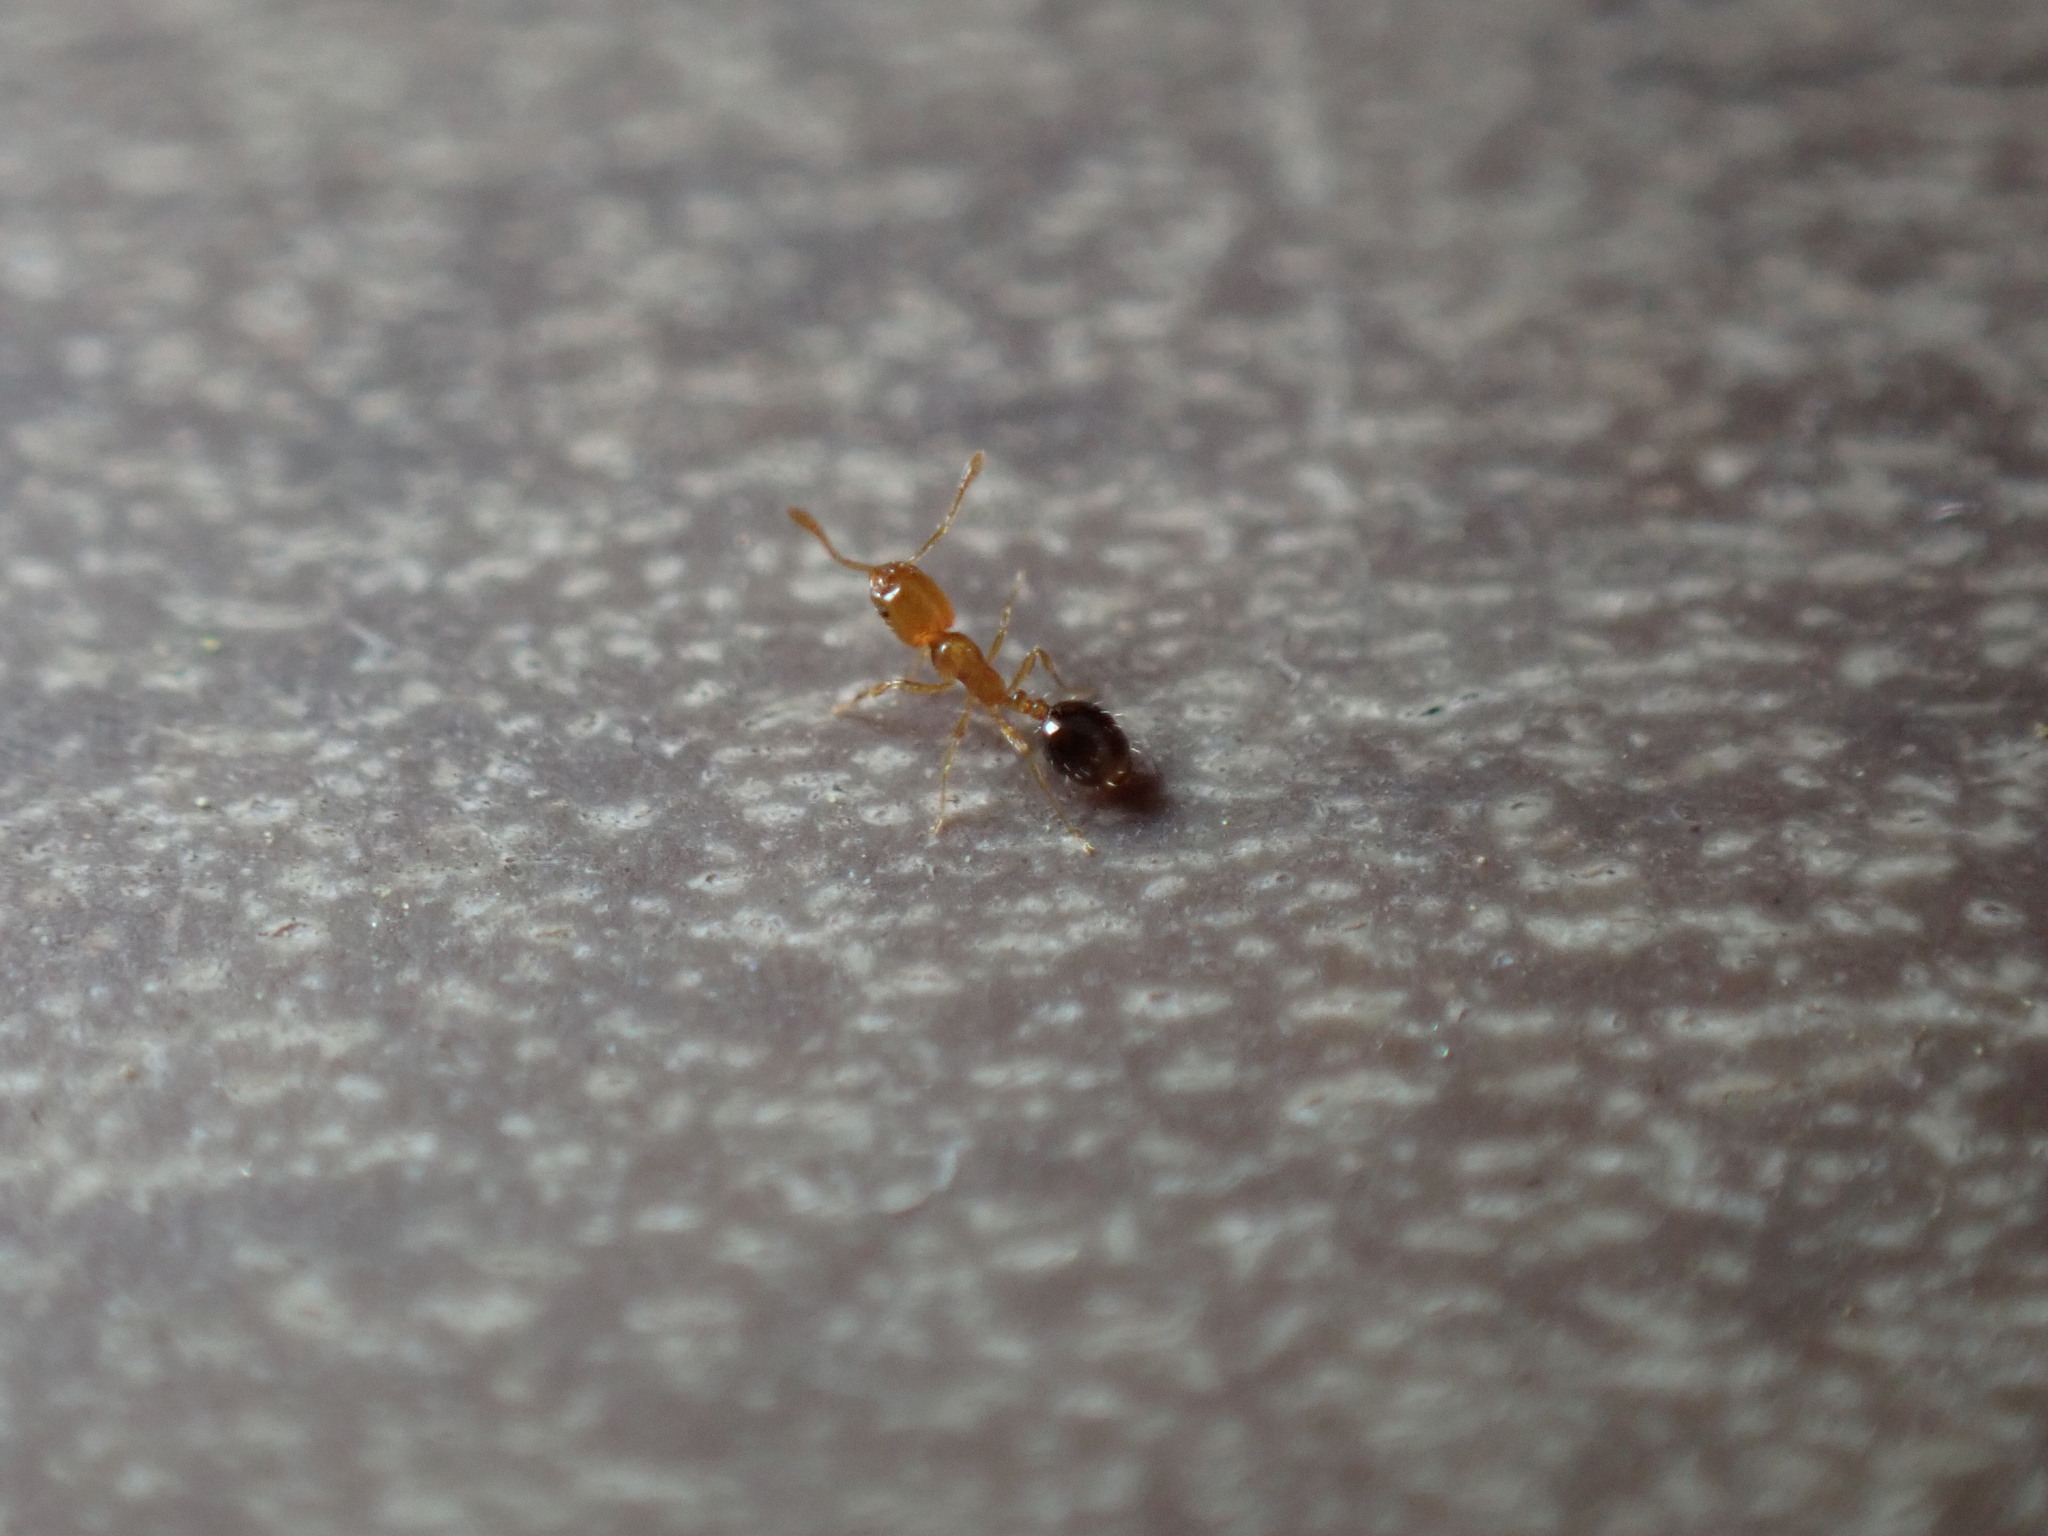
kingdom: Animalia
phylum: Arthropoda
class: Insecta
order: Hymenoptera
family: Formicidae
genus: Monomorium
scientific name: Monomorium intrudens
